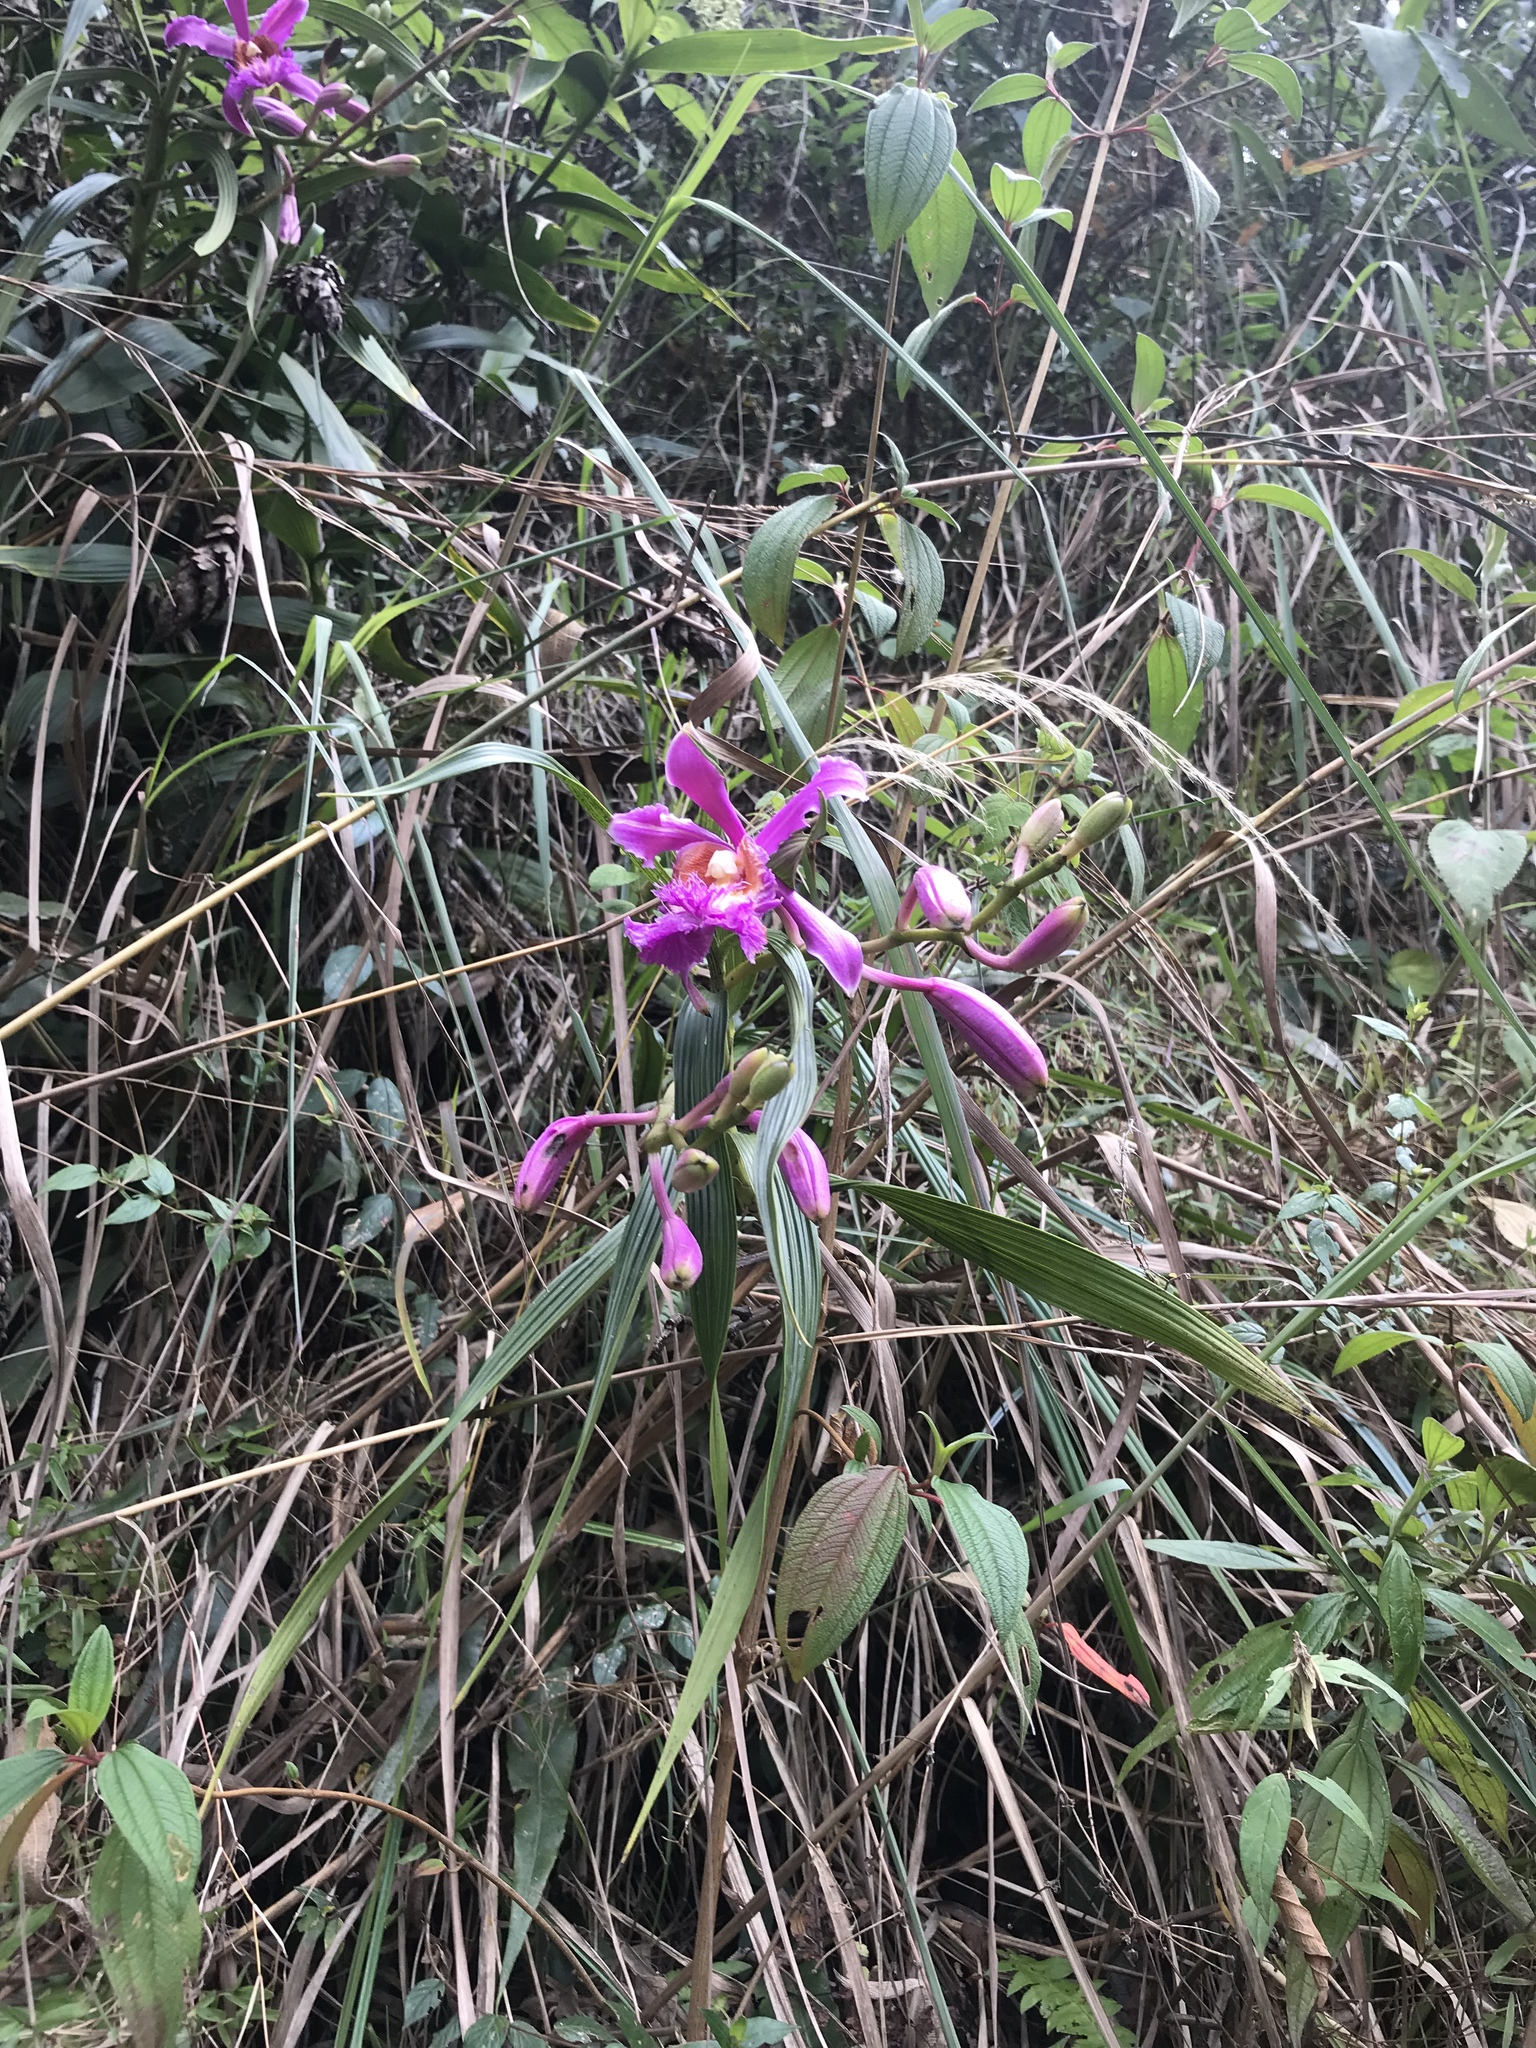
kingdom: Plantae
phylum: Tracheophyta
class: Liliopsida
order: Asparagales
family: Orchidaceae
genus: Sobralia
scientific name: Sobralia dichotoma
